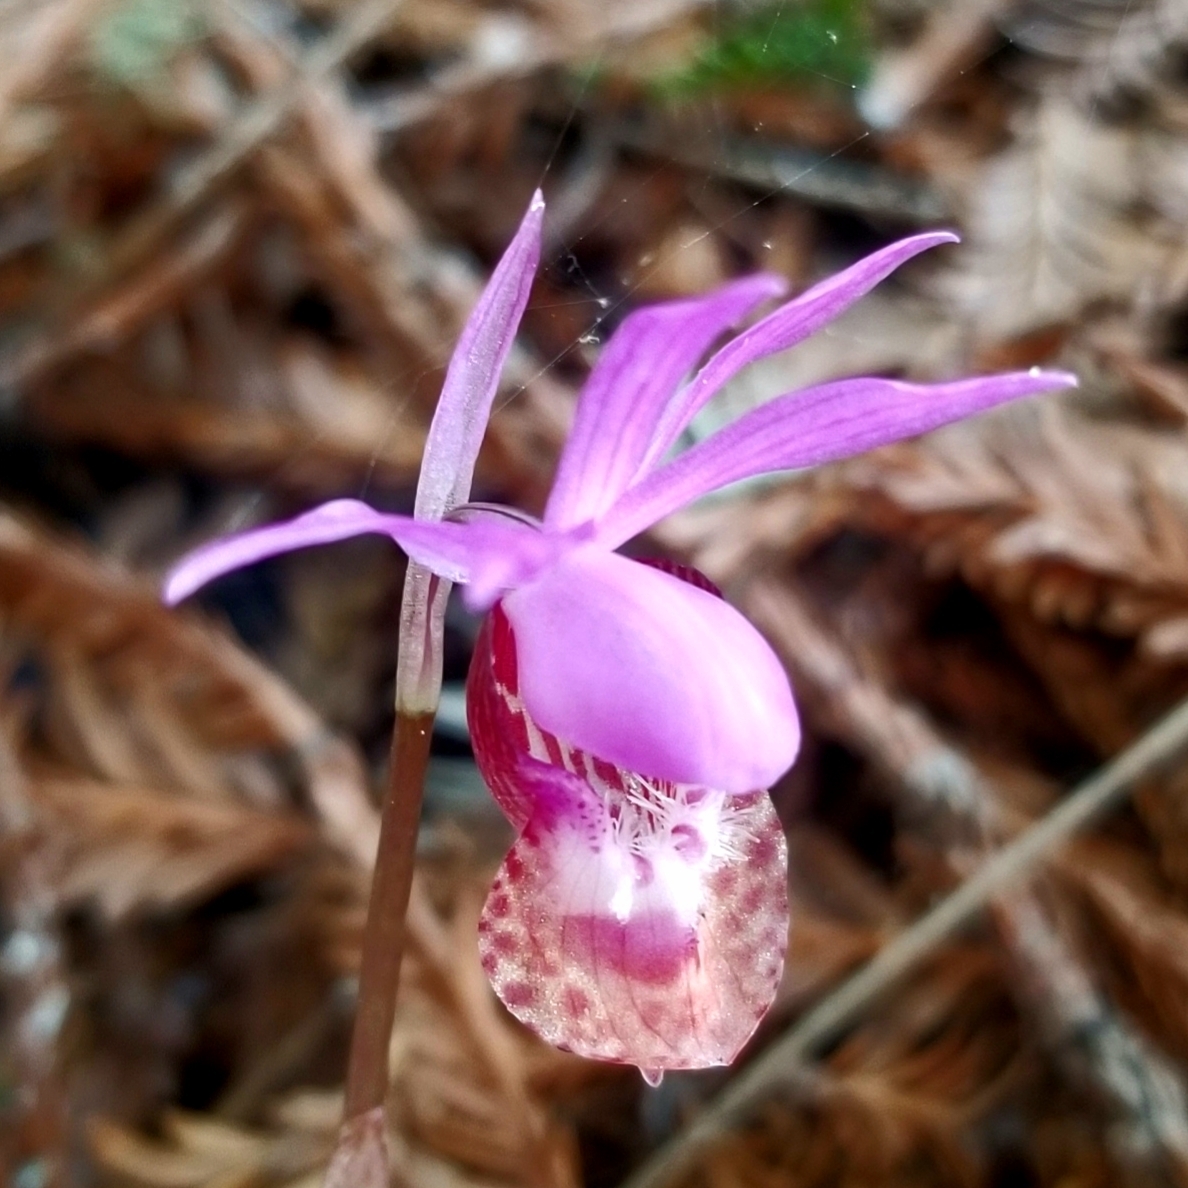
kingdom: Plantae
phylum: Tracheophyta
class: Liliopsida
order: Asparagales
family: Orchidaceae
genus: Calypso
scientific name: Calypso bulbosa
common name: Calypso
